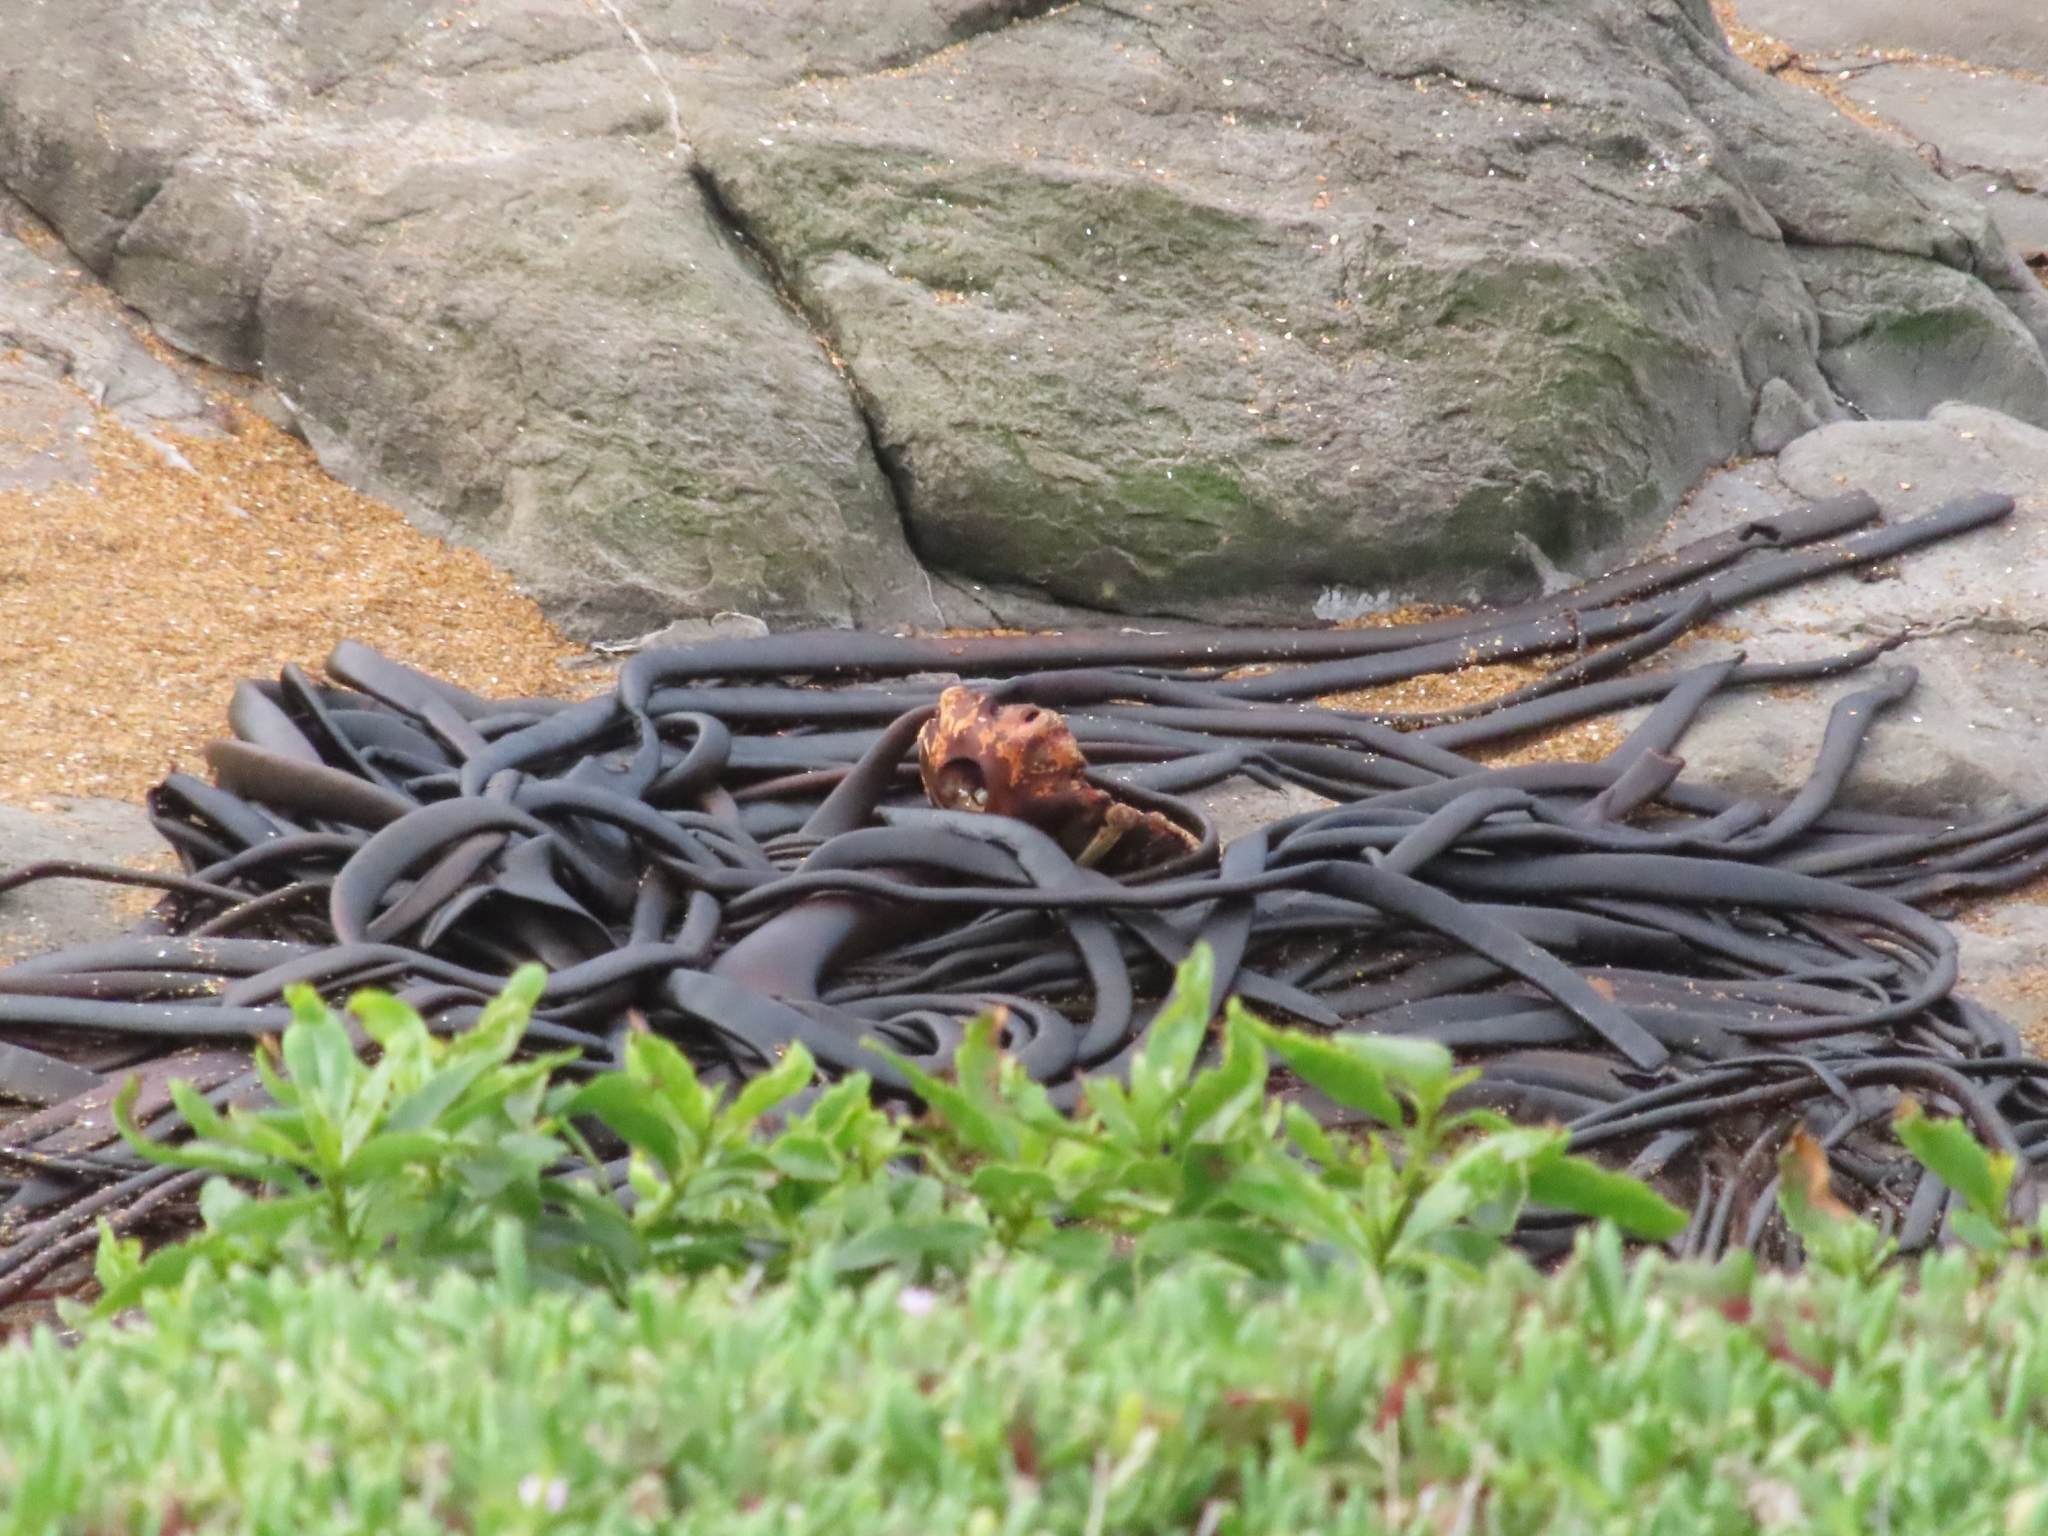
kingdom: Chromista
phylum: Ochrophyta
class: Phaeophyceae
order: Fucales
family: Durvillaeaceae
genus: Durvillaea
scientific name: Durvillaea antarctica
